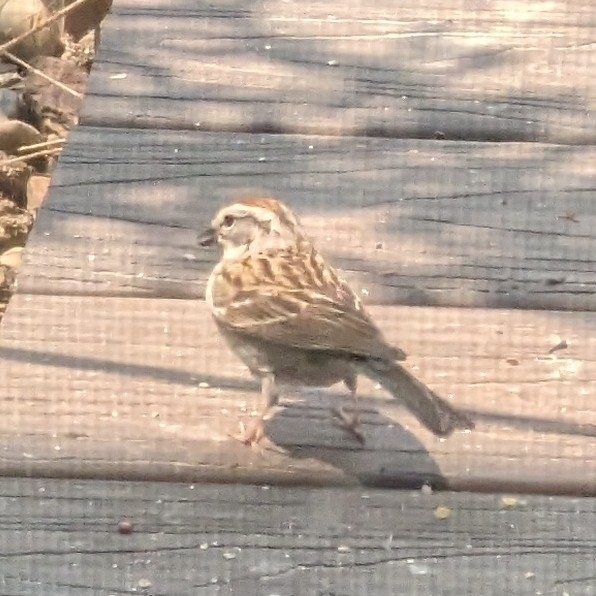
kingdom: Animalia
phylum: Chordata
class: Aves
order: Passeriformes
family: Passerellidae
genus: Spizella
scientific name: Spizella passerina
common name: Chipping sparrow
